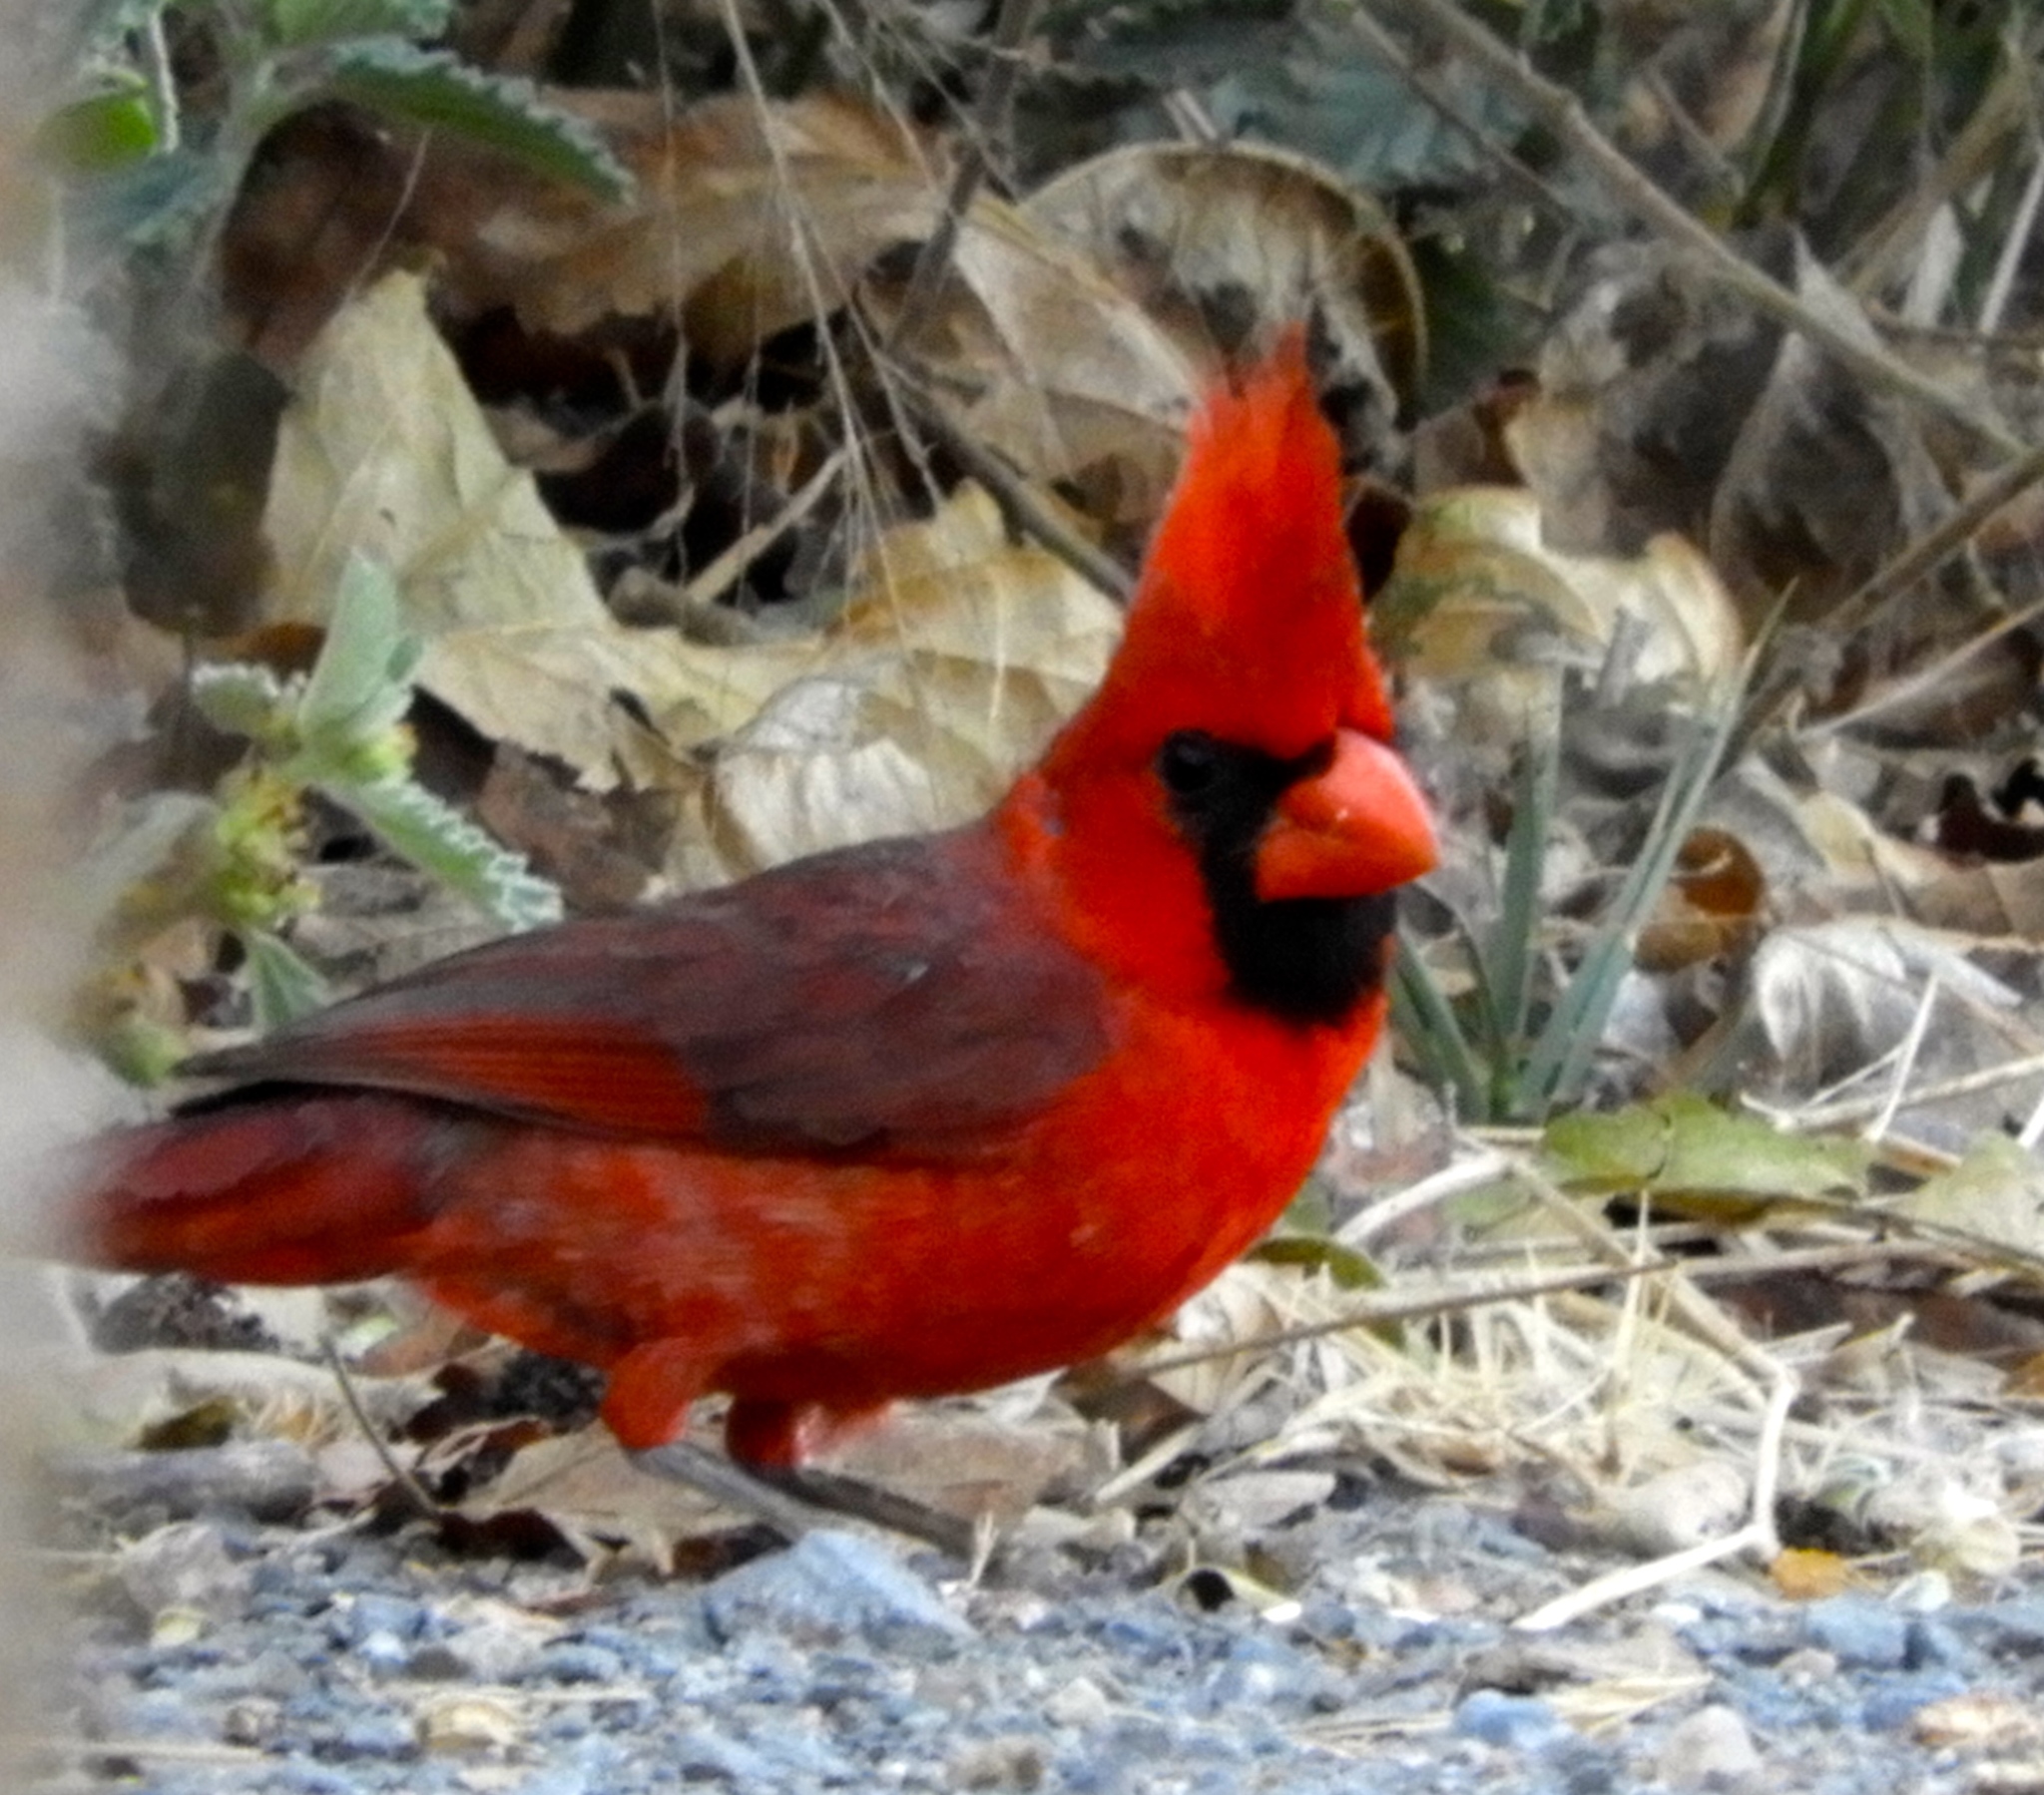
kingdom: Animalia
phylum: Chordata
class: Aves
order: Passeriformes
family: Cardinalidae
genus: Cardinalis
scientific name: Cardinalis cardinalis
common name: Northern cardinal
